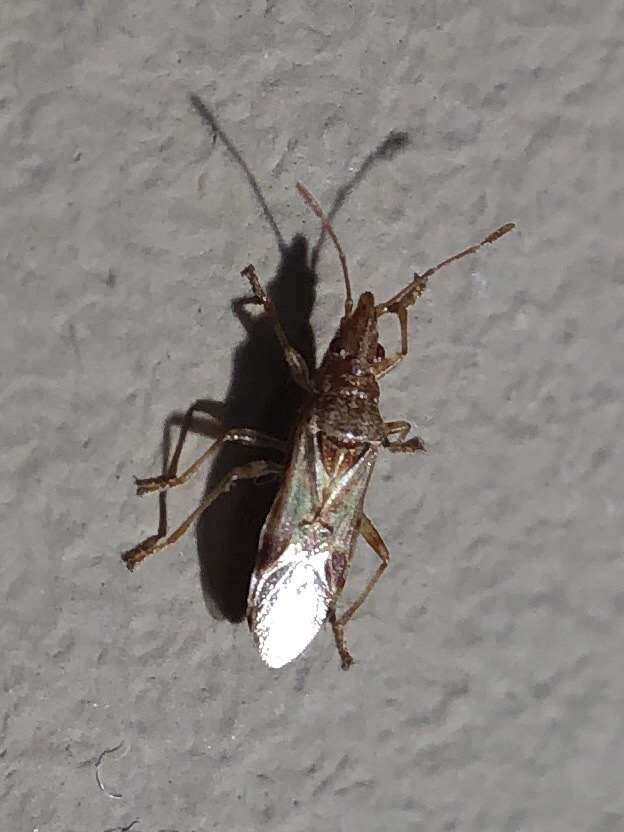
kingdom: Animalia
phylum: Arthropoda
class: Insecta
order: Hemiptera
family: Lygaeidae
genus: Belonochilus
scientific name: Belonochilus numenius
